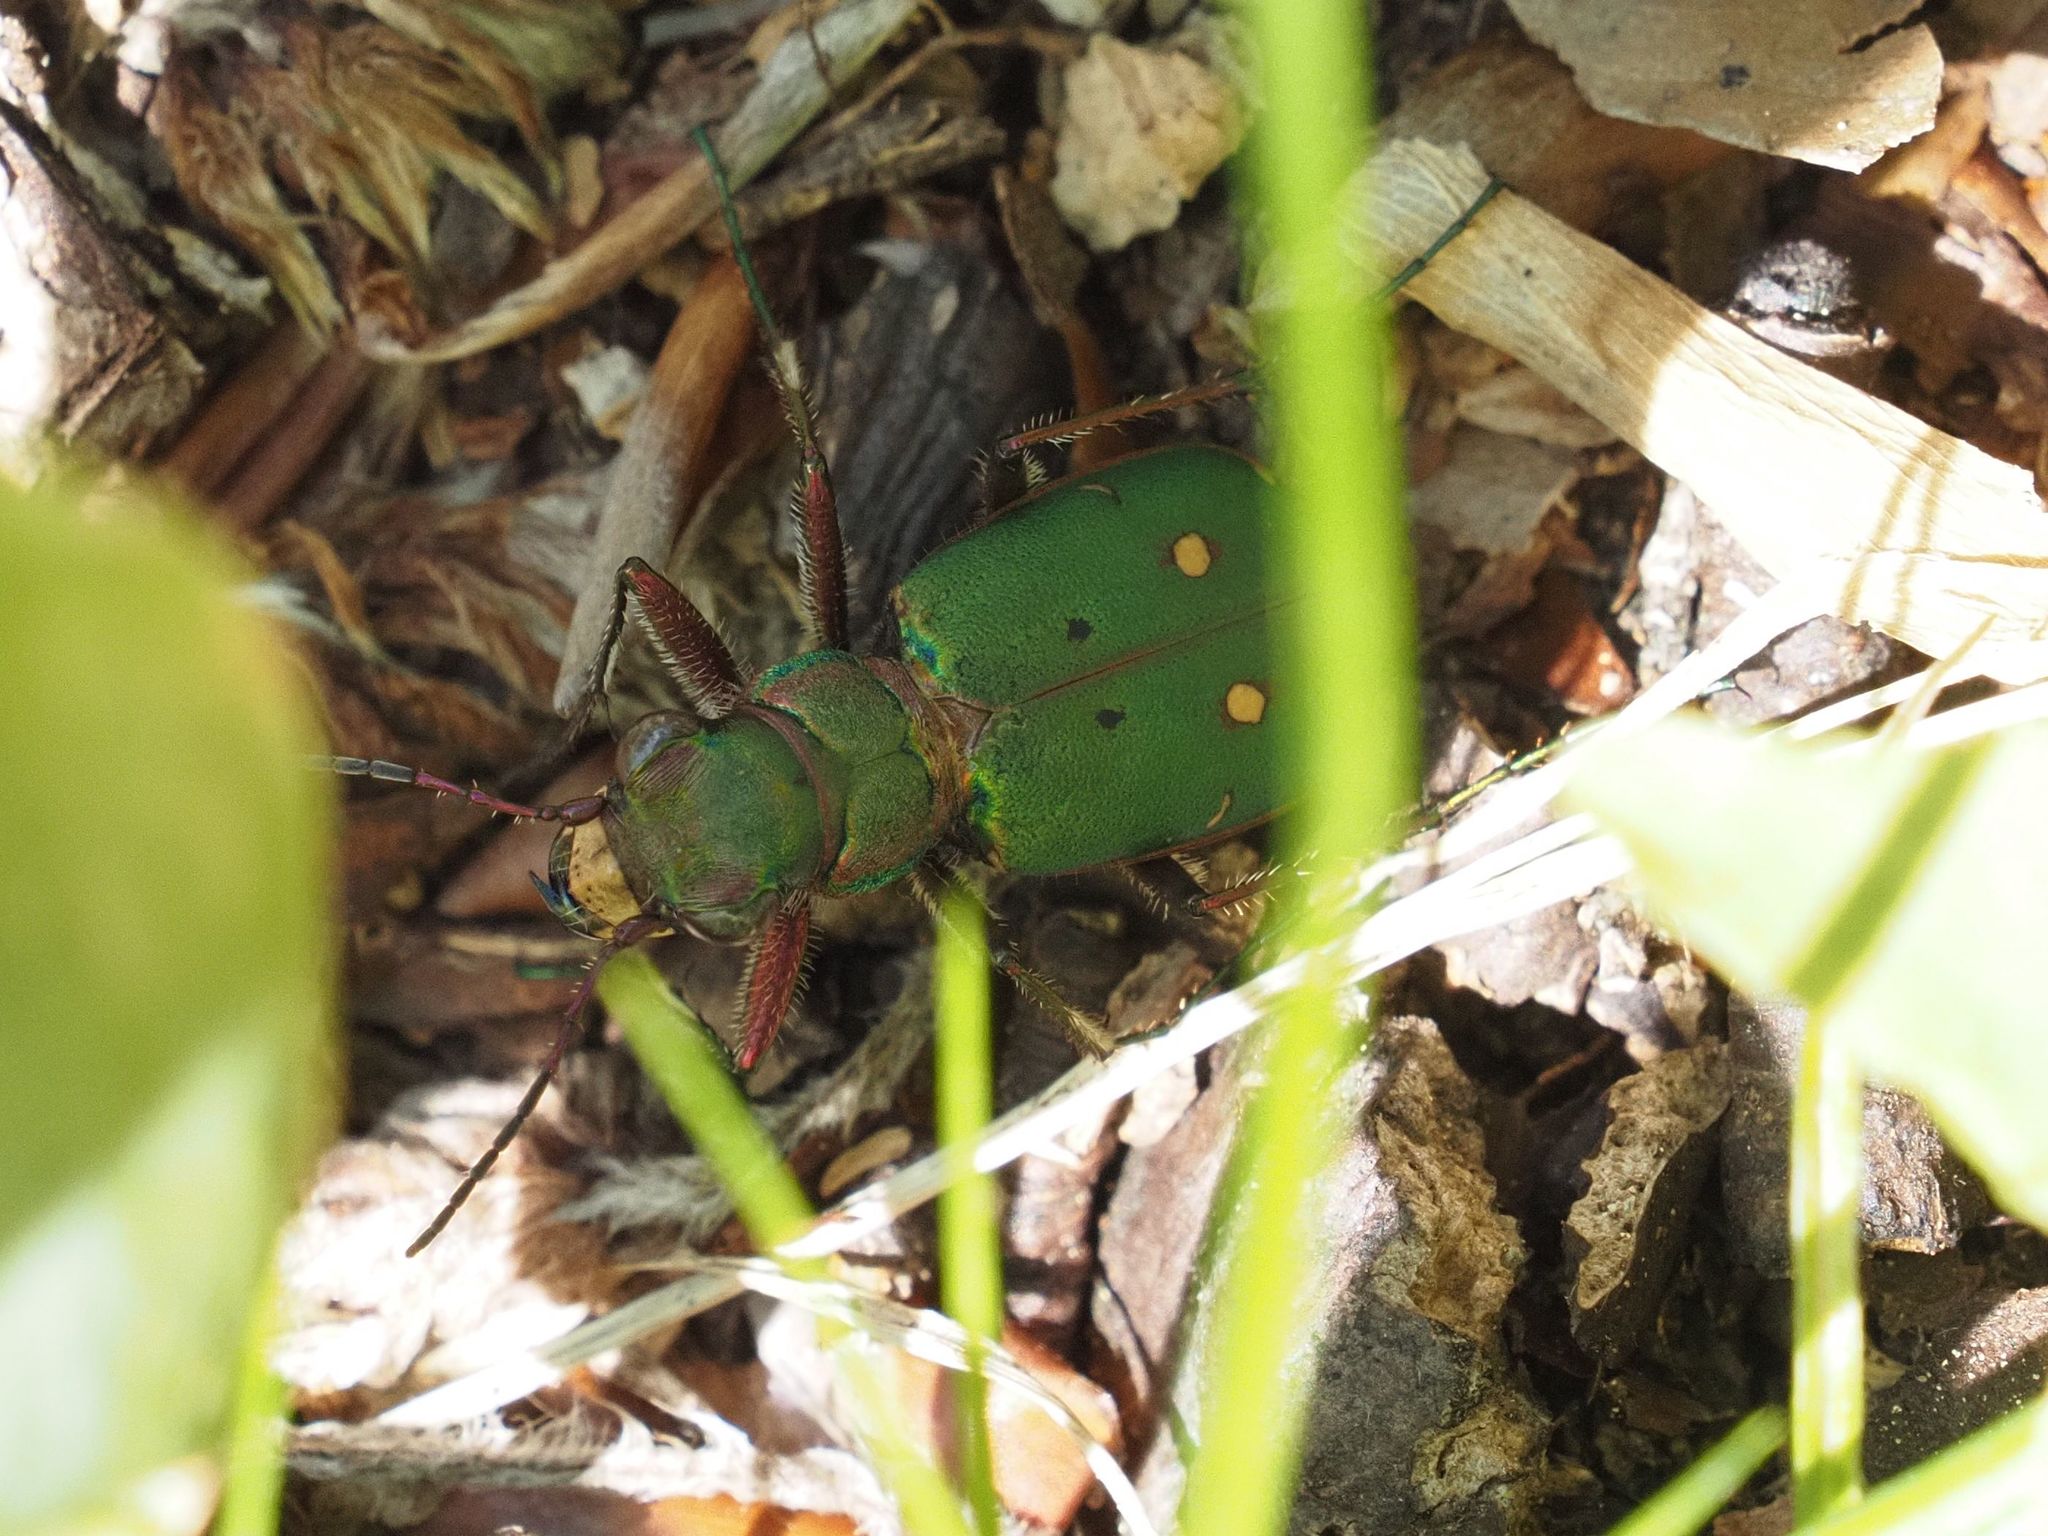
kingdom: Animalia
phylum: Arthropoda
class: Insecta
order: Coleoptera
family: Carabidae
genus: Cicindela
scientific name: Cicindela campestris
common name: Common tiger beetle
